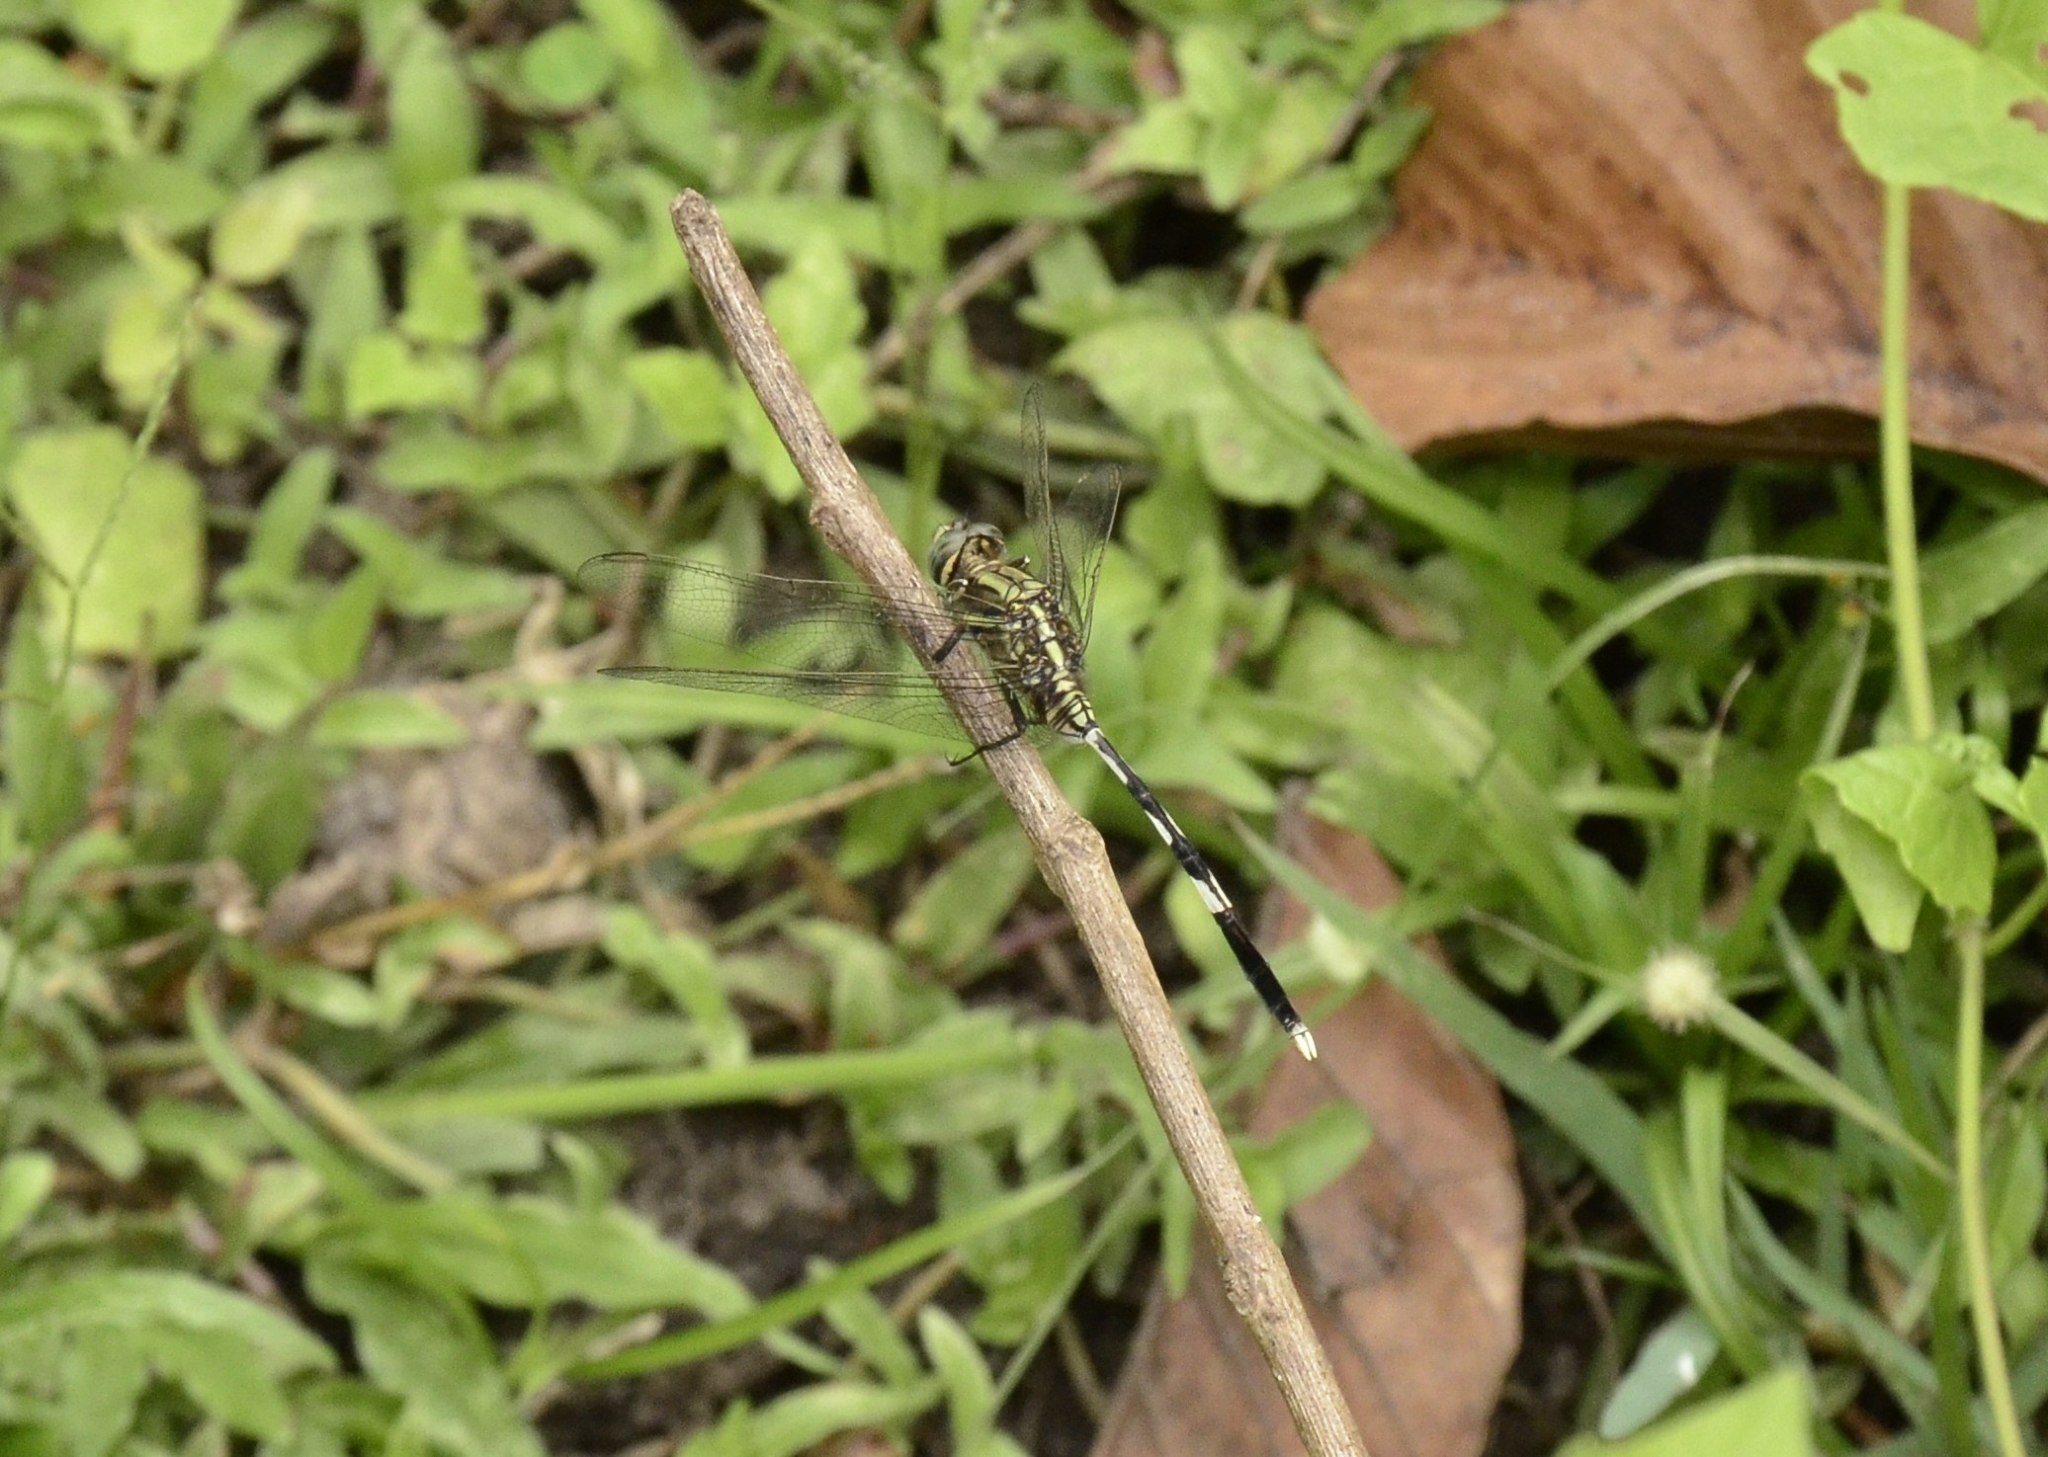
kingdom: Animalia
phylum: Arthropoda
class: Insecta
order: Odonata
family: Libellulidae
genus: Orthetrum
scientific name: Orthetrum sabina
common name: Slender skimmer
